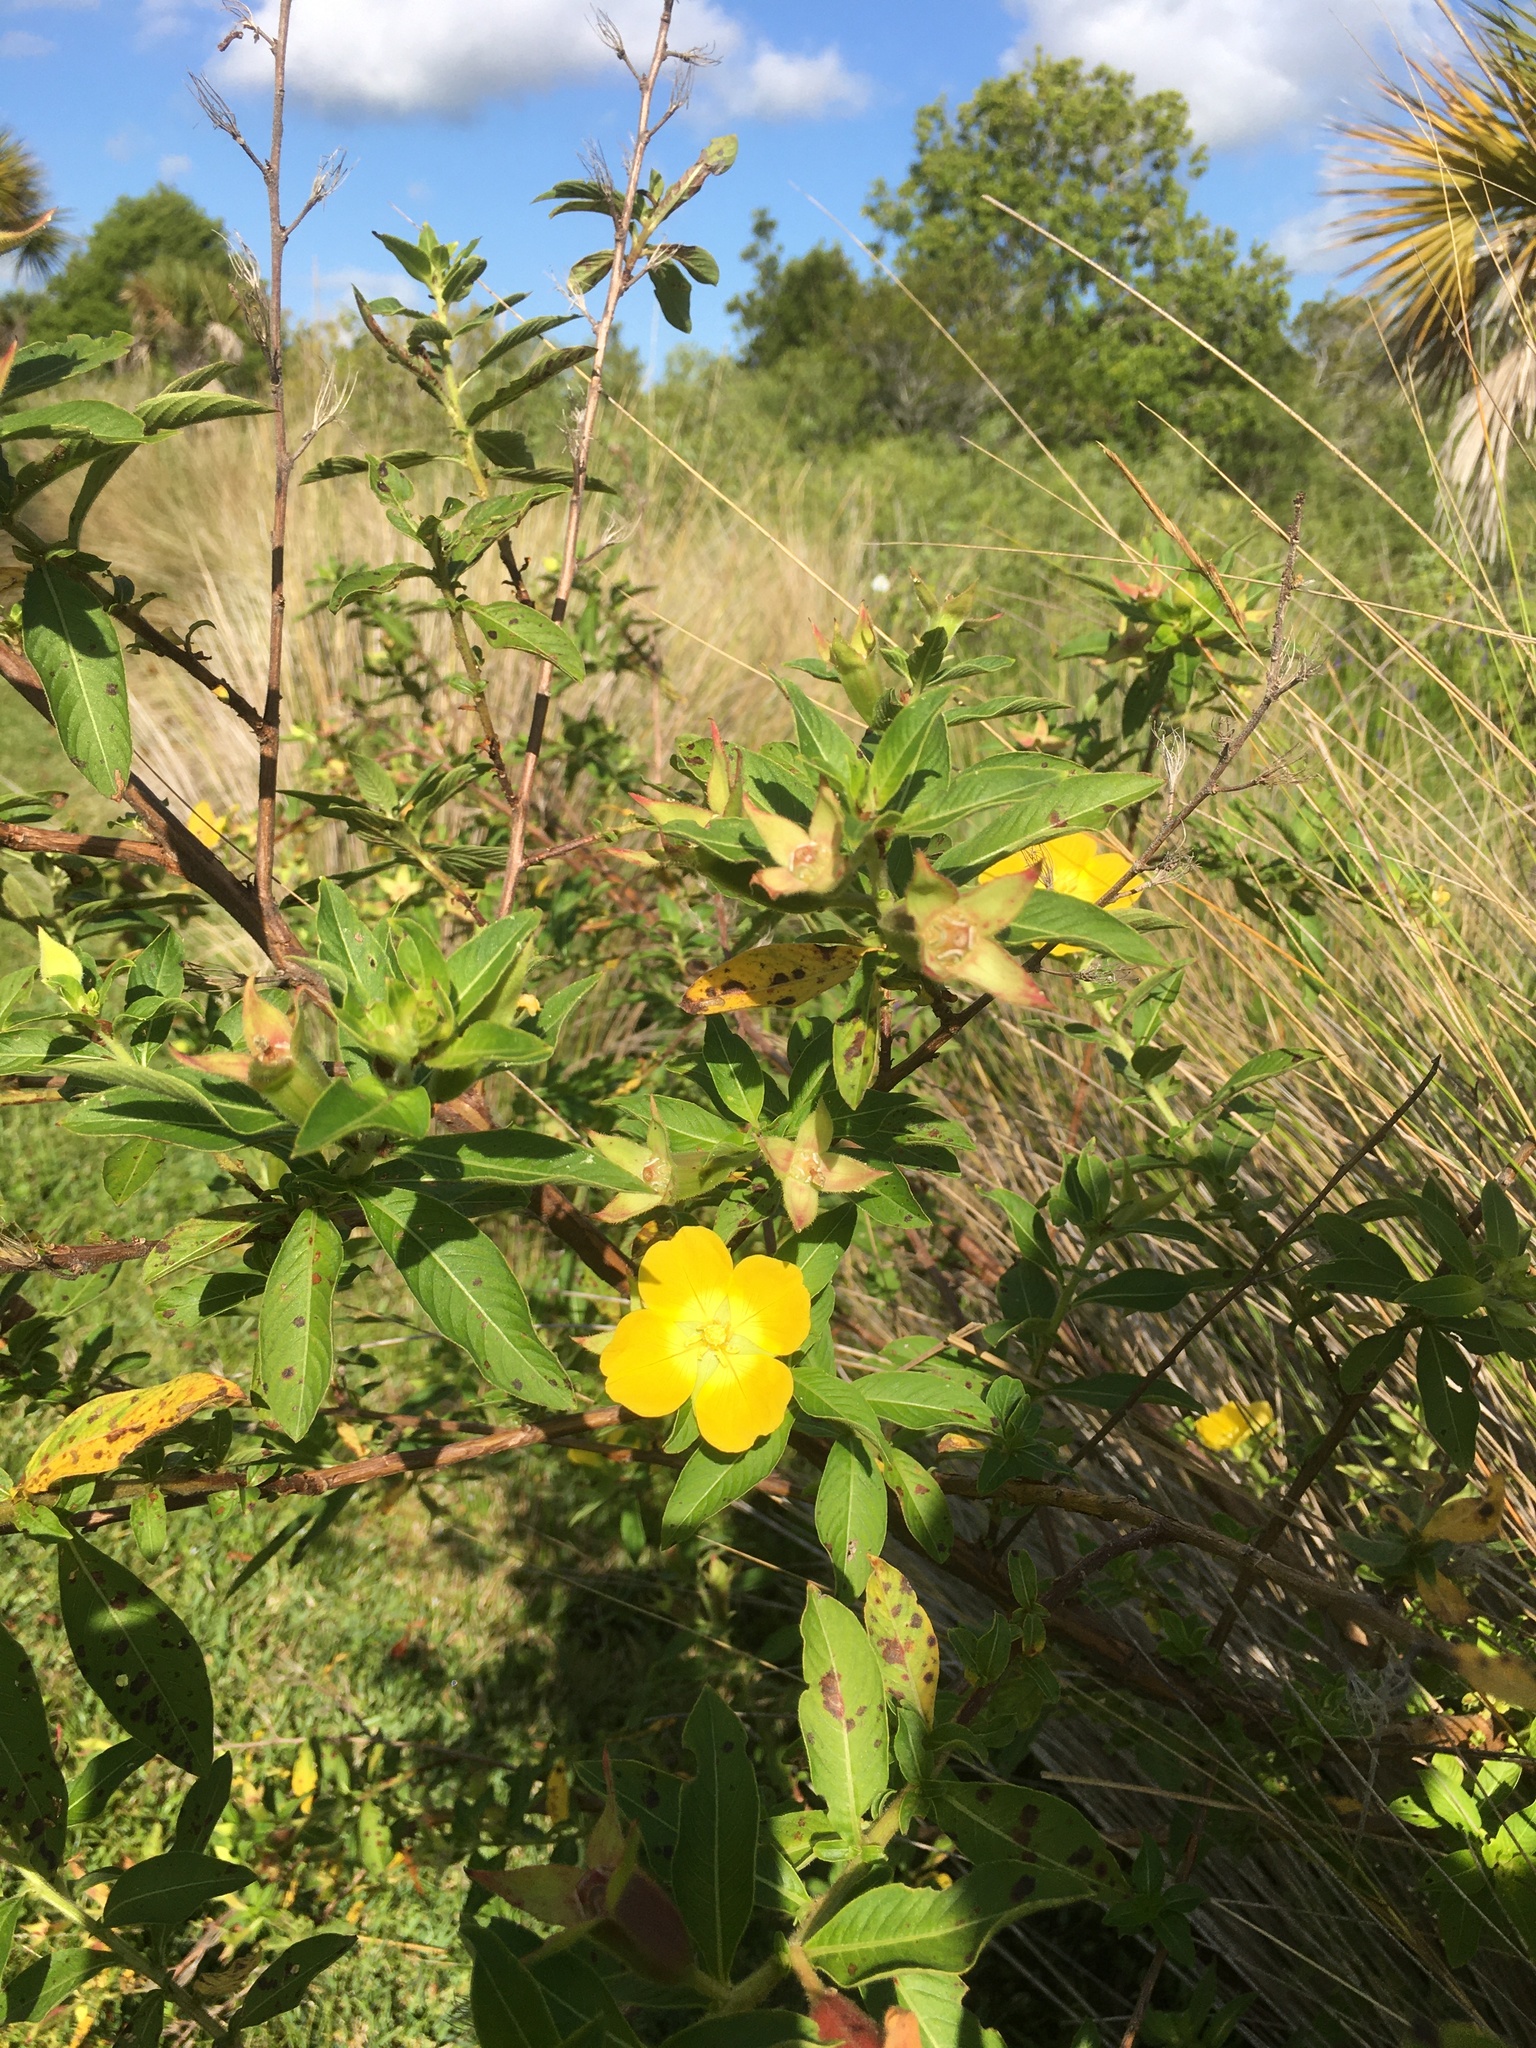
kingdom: Plantae
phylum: Tracheophyta
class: Magnoliopsida
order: Myrtales
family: Onagraceae
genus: Ludwigia
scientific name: Ludwigia peruviana
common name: Peruvian primrose-willow
